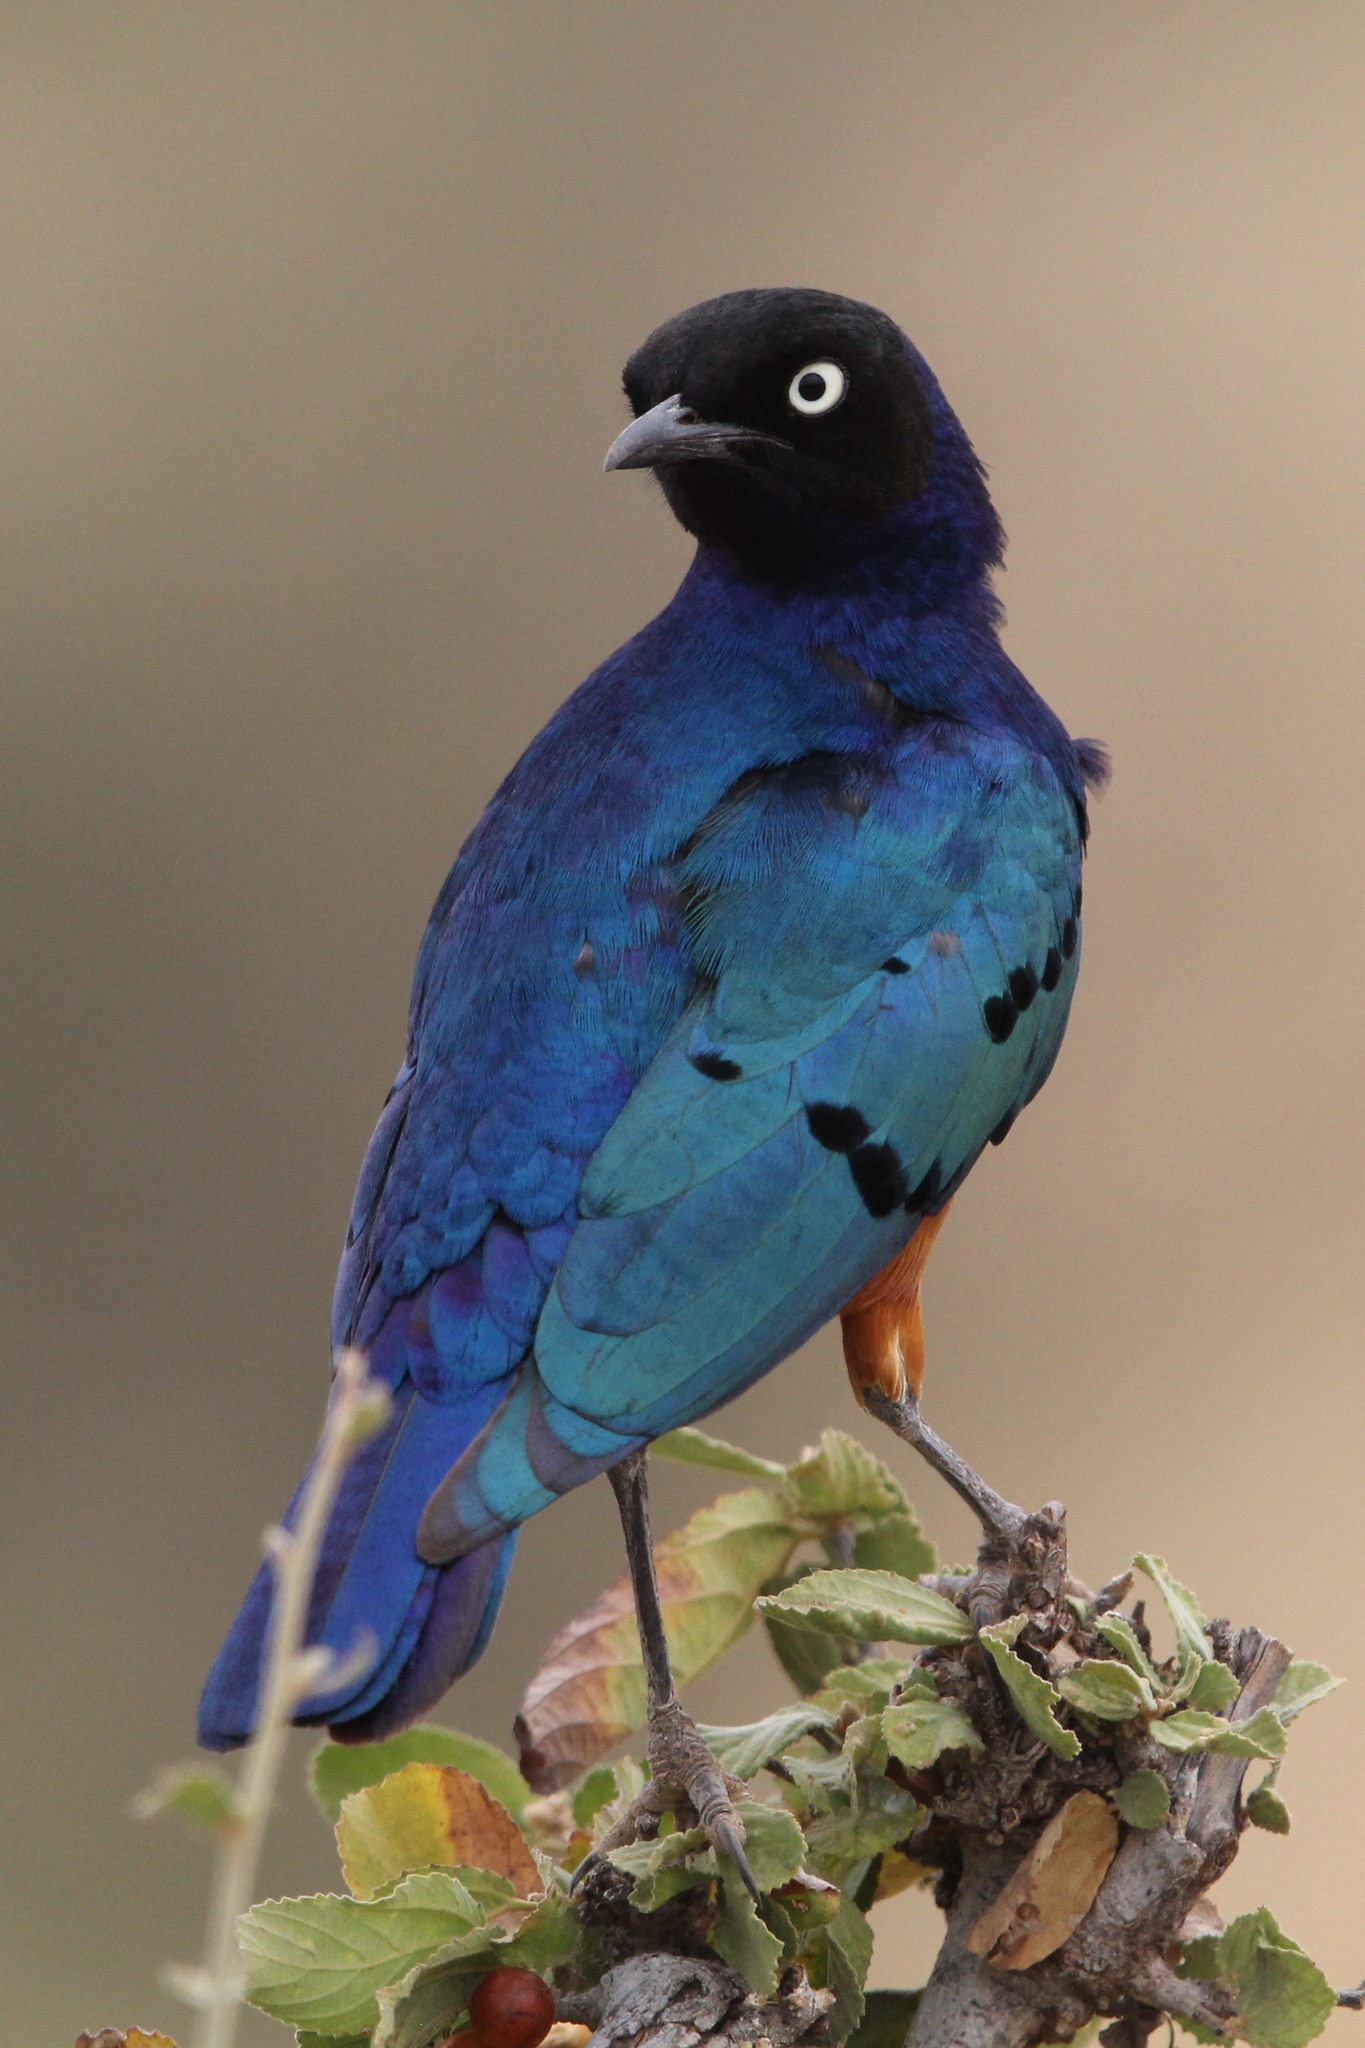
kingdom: Animalia
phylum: Chordata
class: Aves
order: Passeriformes
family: Sturnidae
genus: Lamprotornis
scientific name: Lamprotornis superbus
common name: Superb starling
